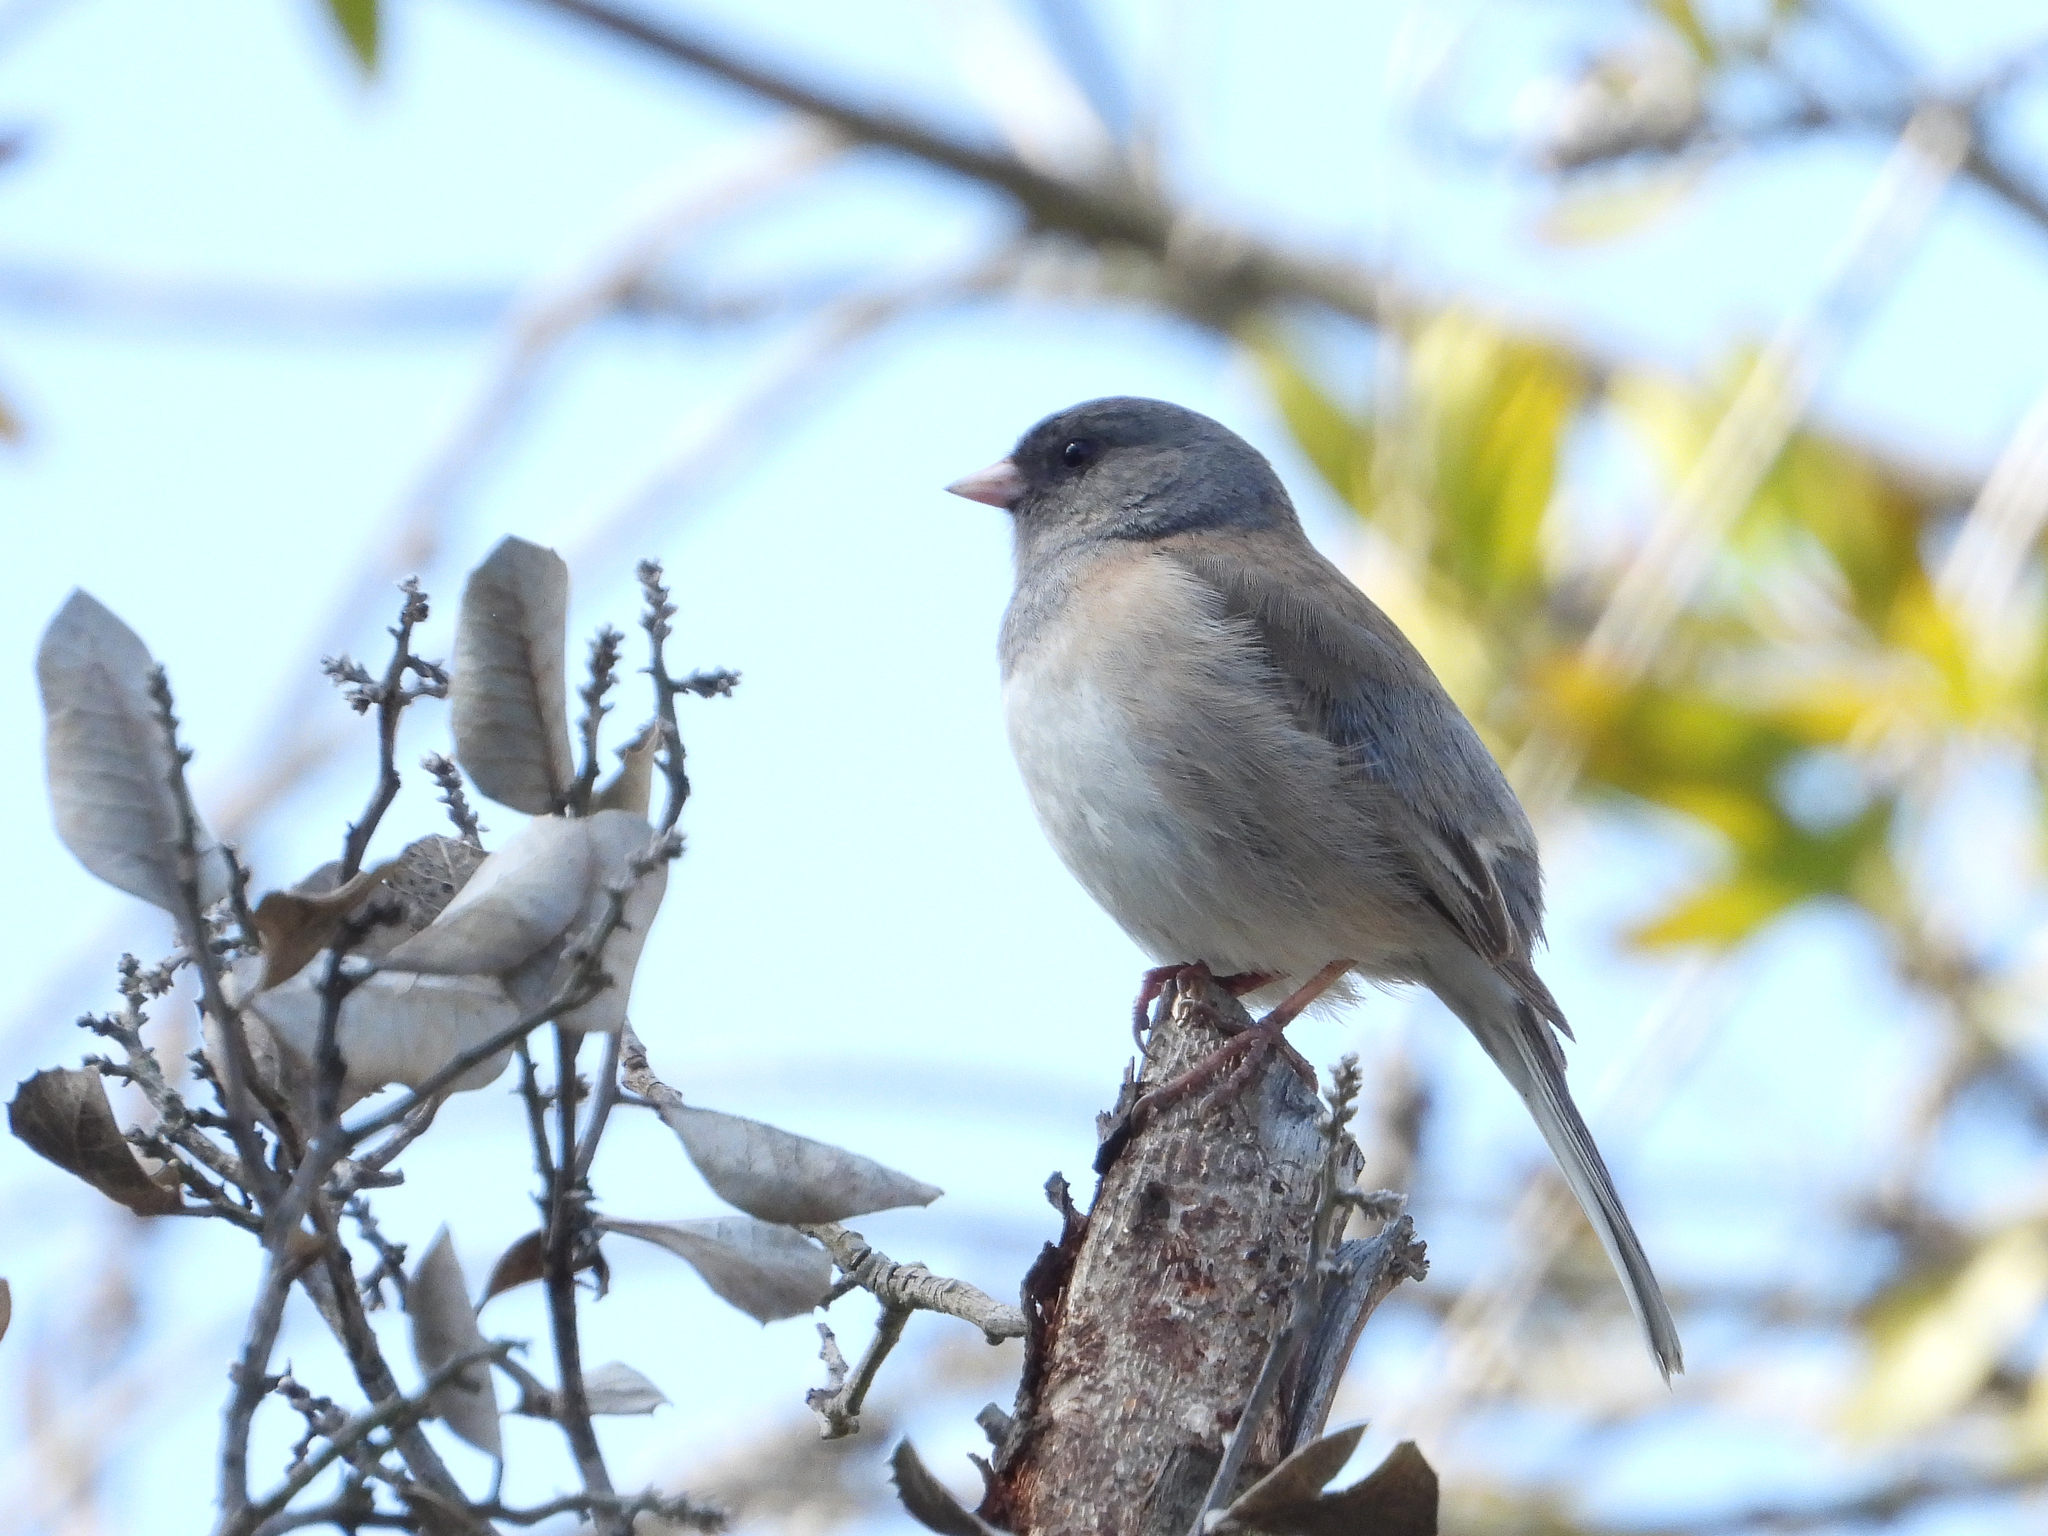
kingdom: Animalia
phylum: Chordata
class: Aves
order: Passeriformes
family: Passerellidae
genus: Junco
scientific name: Junco hyemalis
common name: Dark-eyed junco
